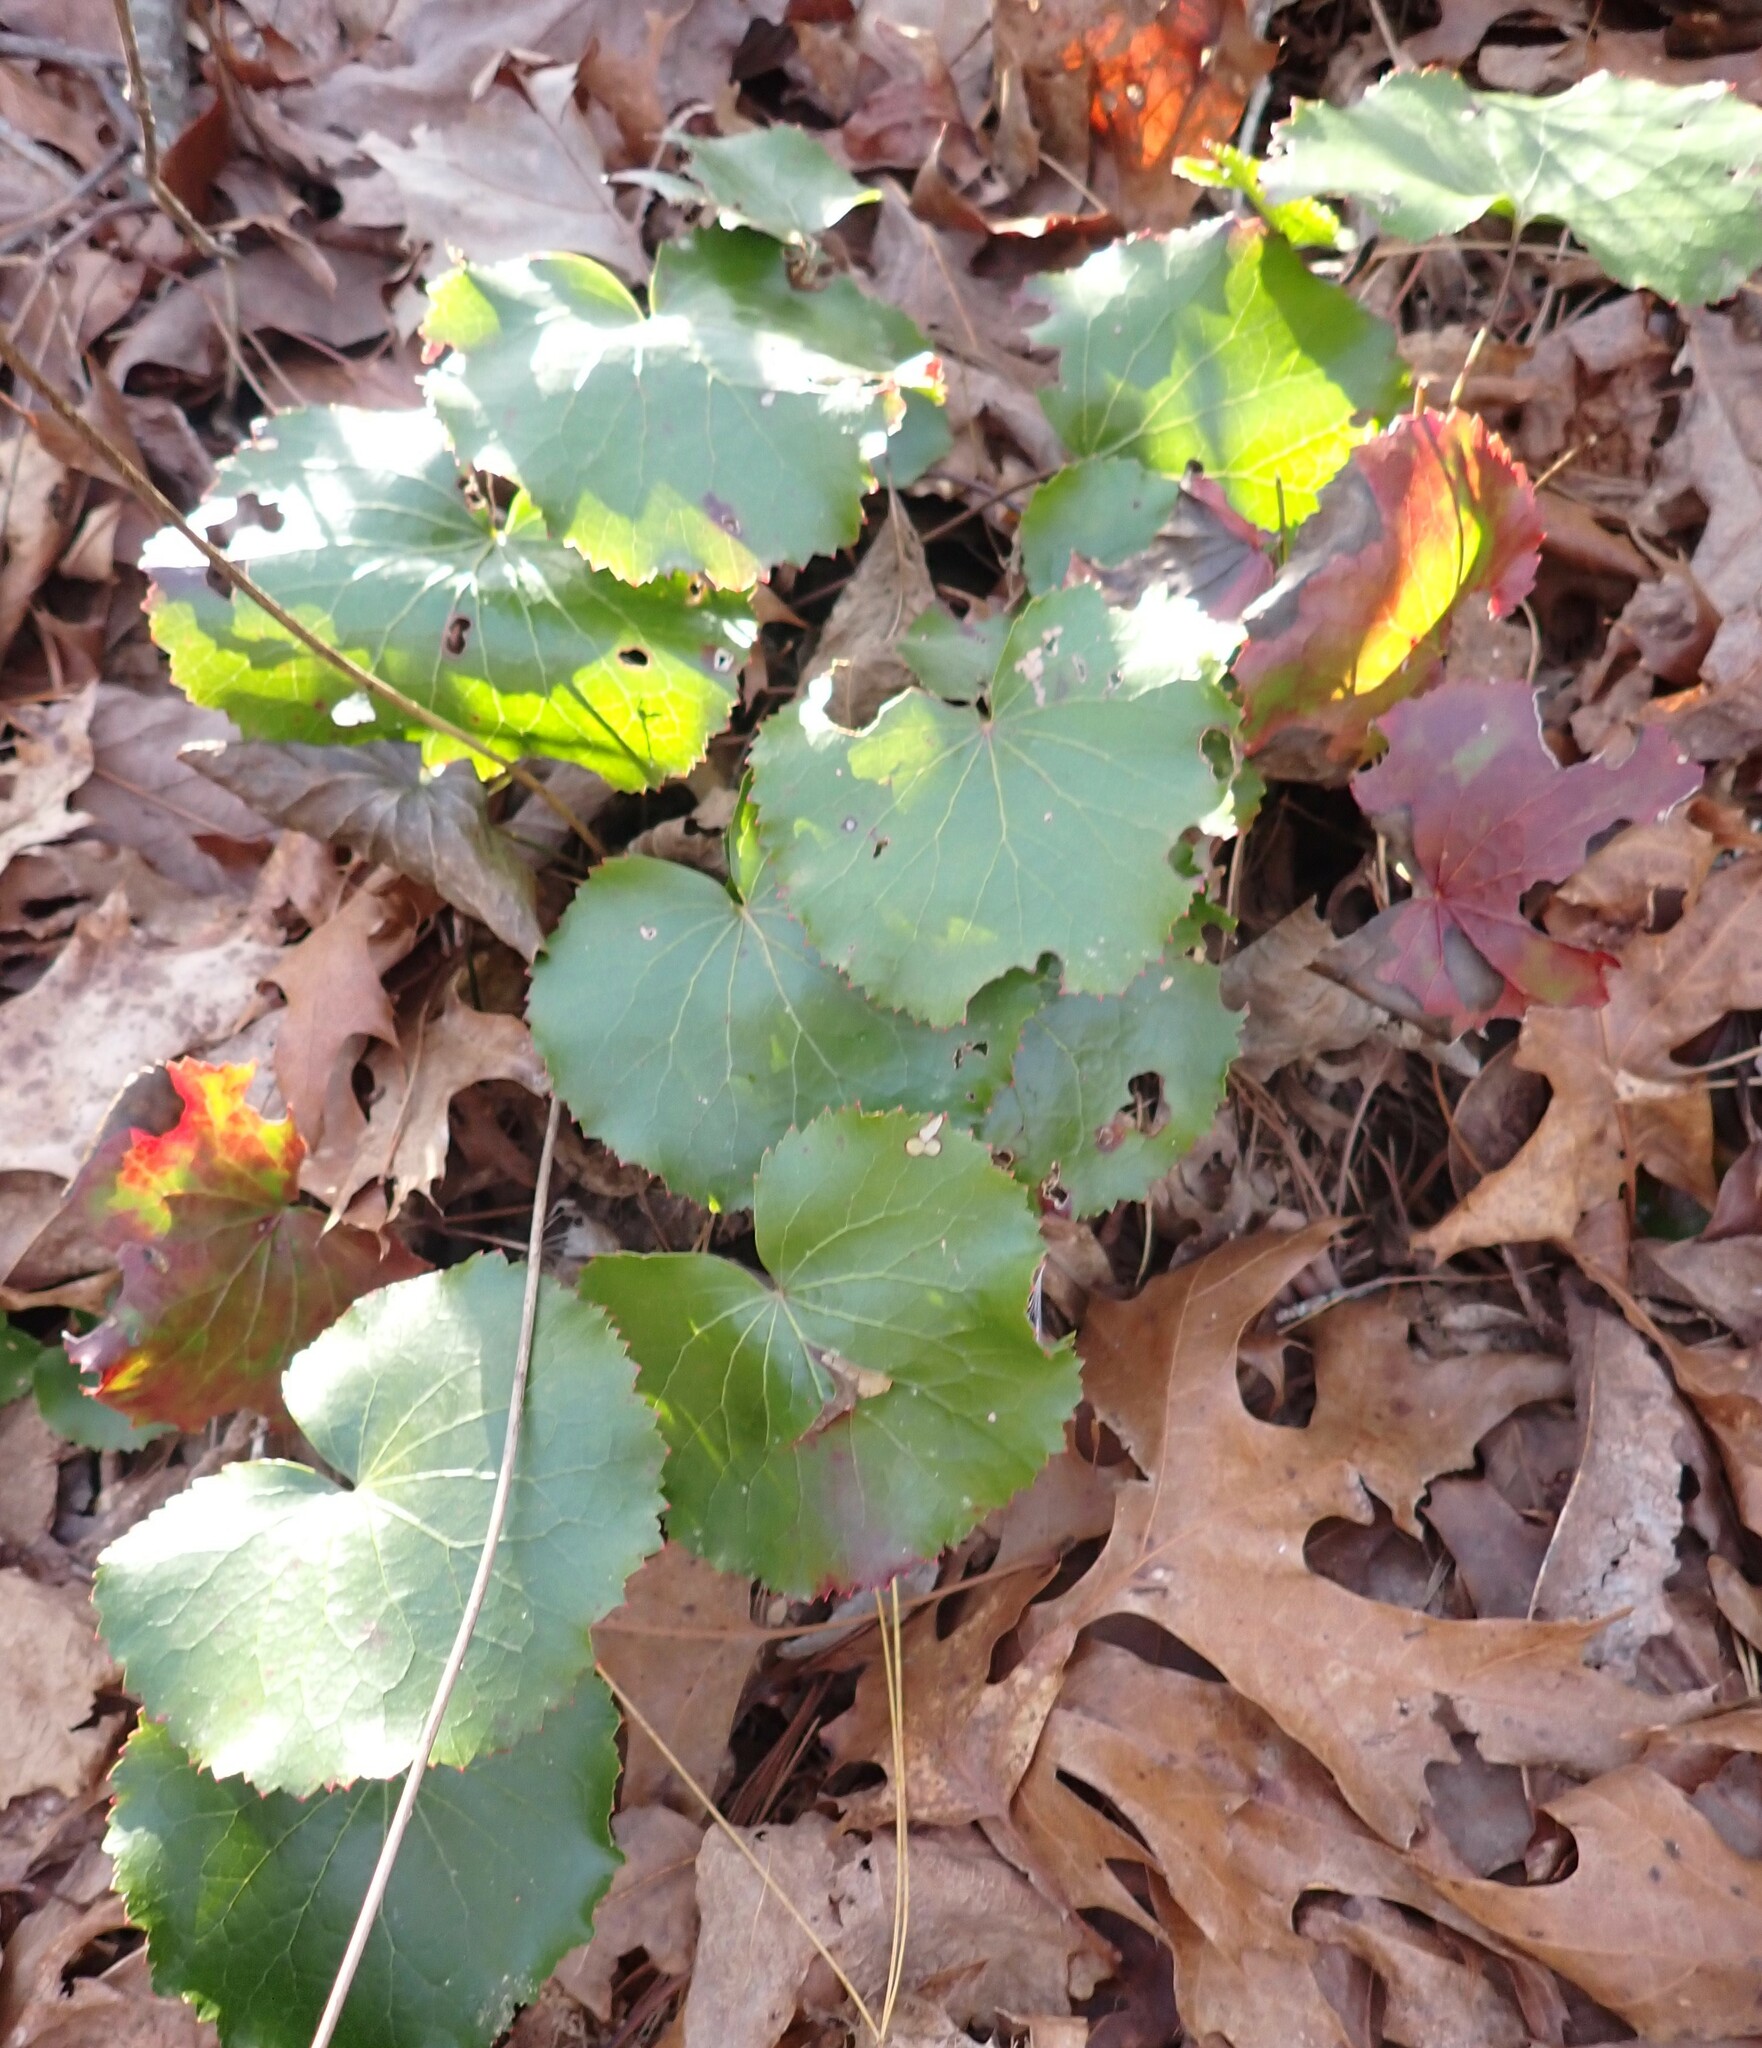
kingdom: Plantae
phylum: Tracheophyta
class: Magnoliopsida
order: Ericales
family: Diapensiaceae
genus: Galax
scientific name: Galax urceolata
